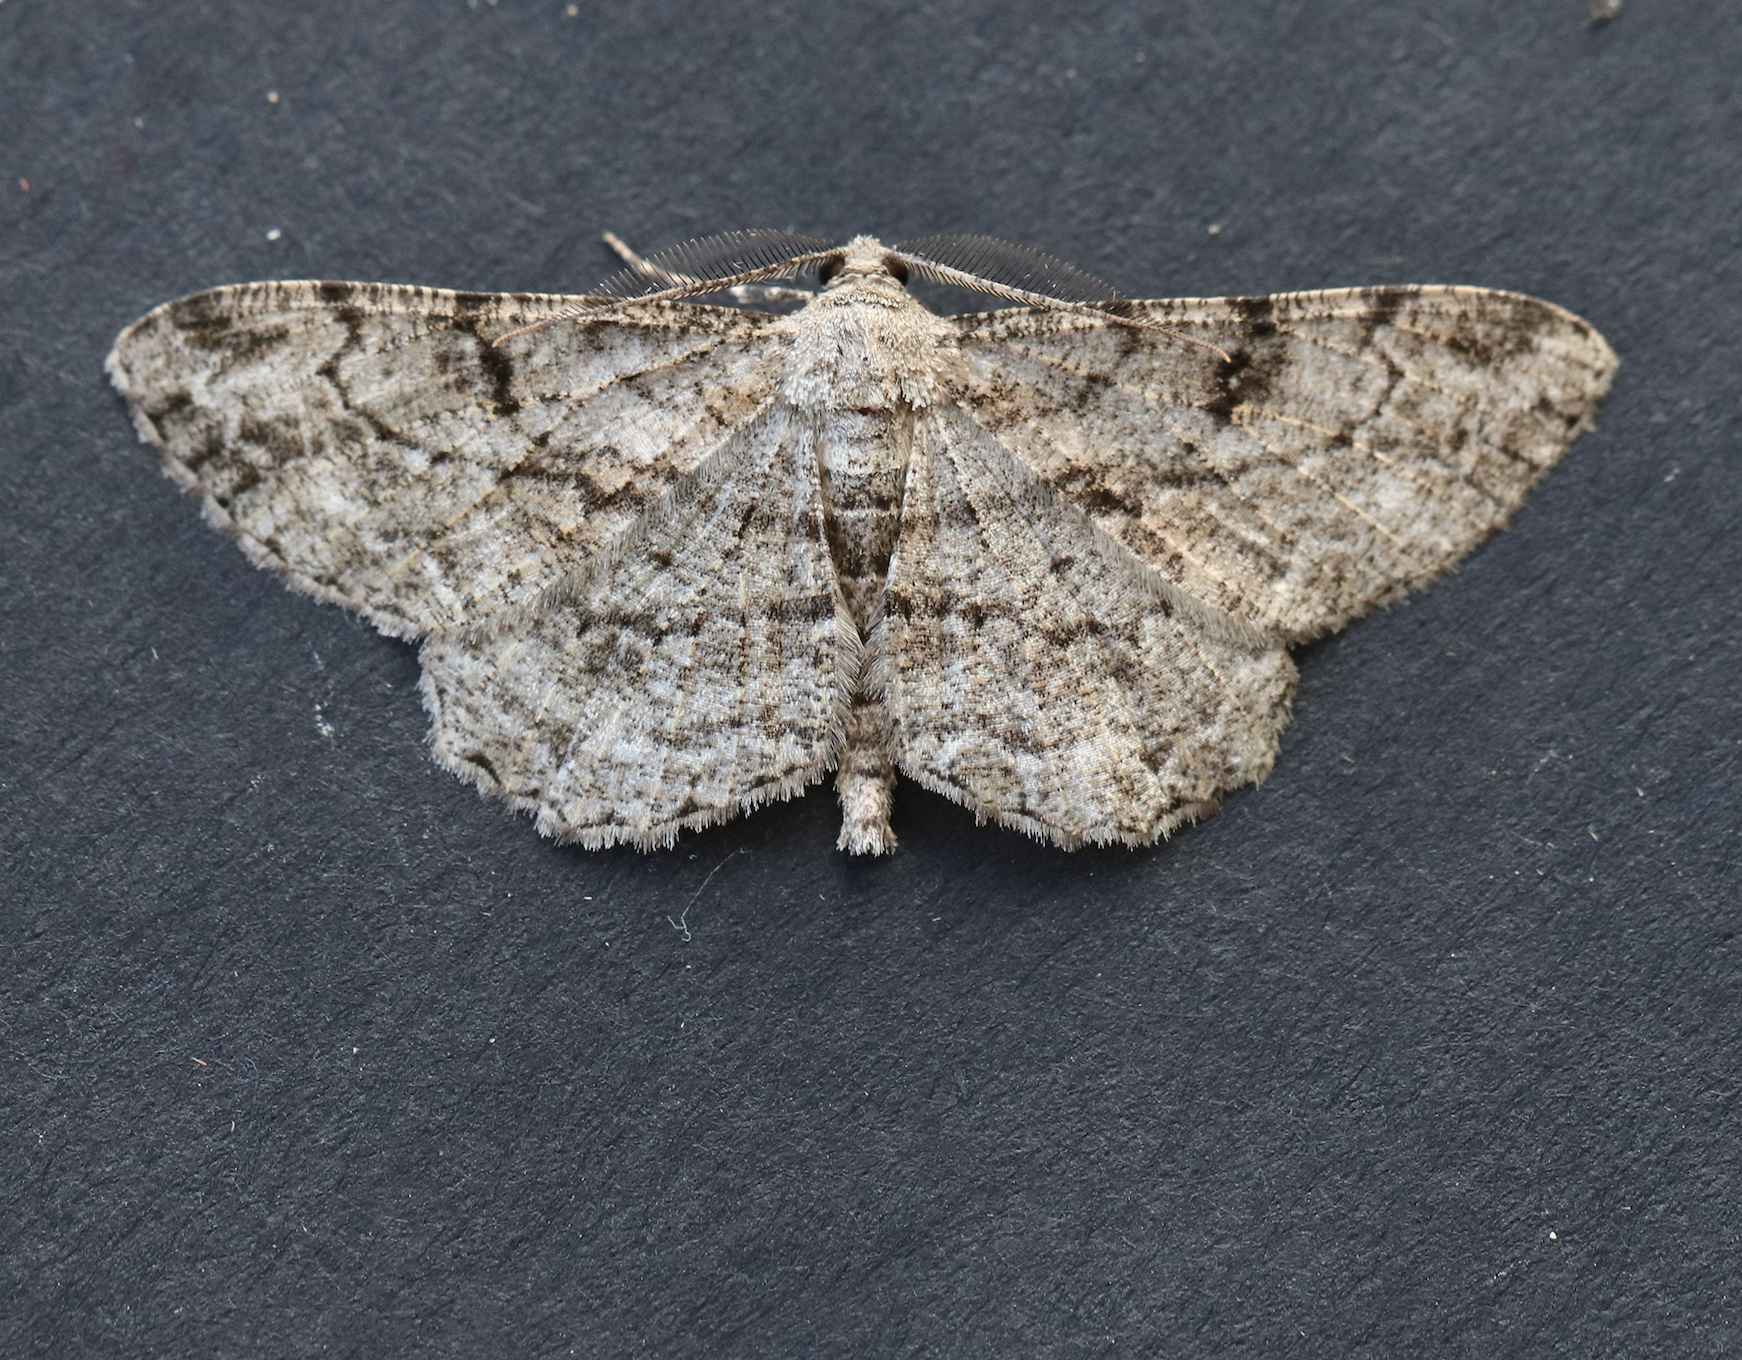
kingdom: Animalia
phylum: Arthropoda
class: Insecta
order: Lepidoptera
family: Geometridae
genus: Peribatodes
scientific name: Peribatodes rhomboidaria
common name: Willow beauty
